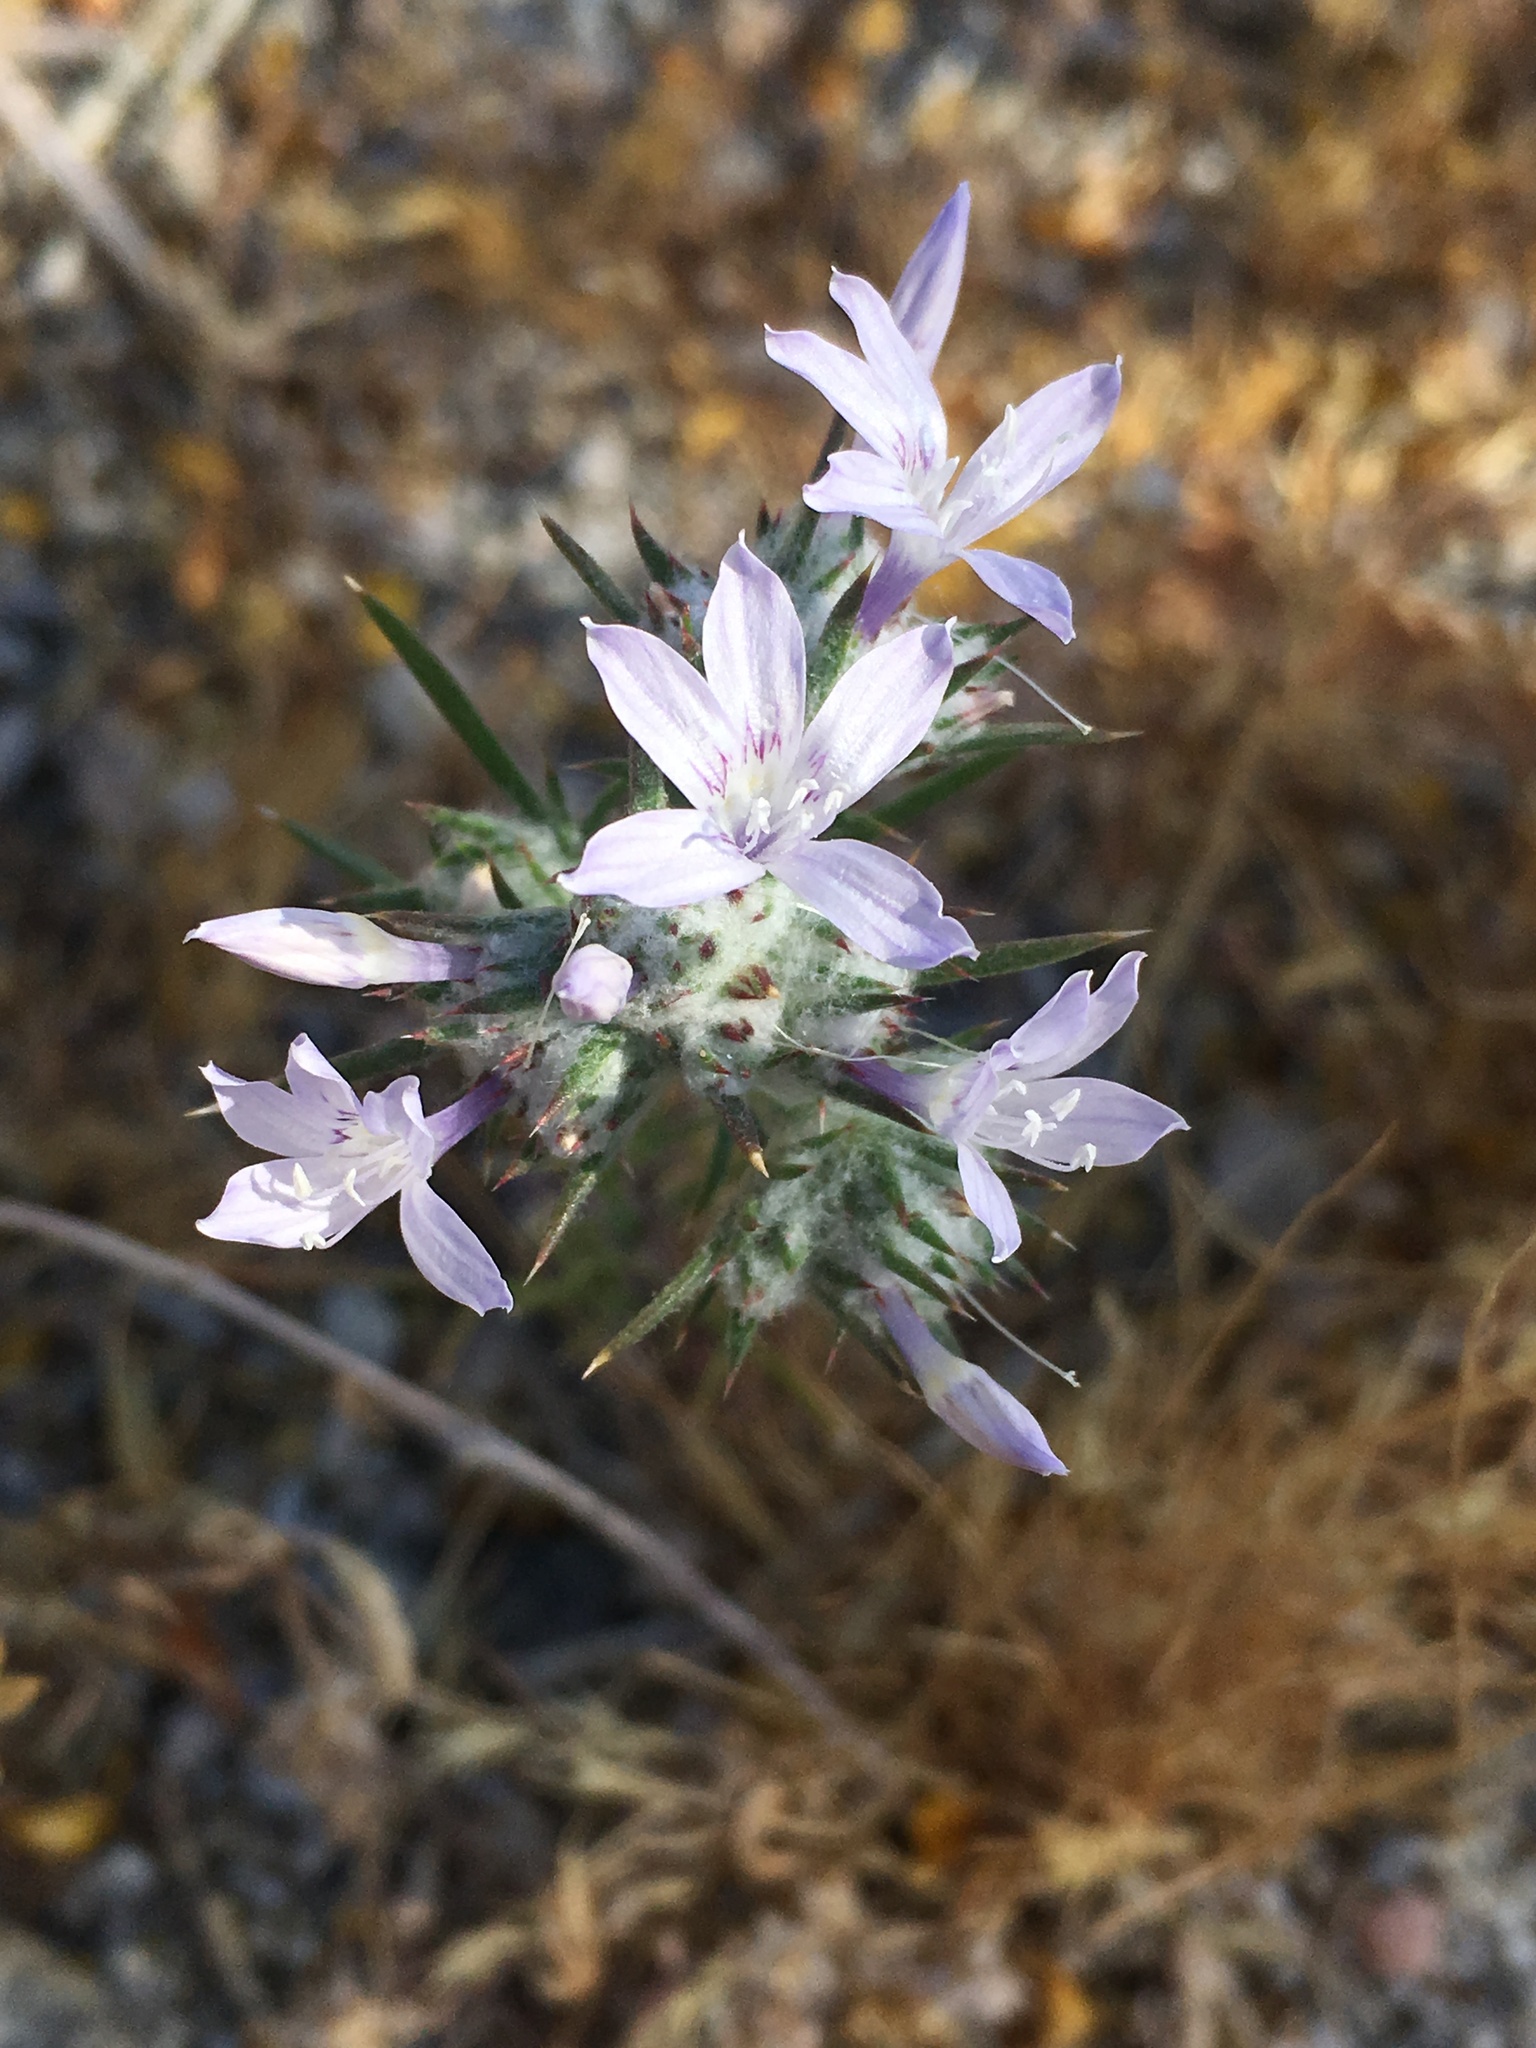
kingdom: Plantae
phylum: Tracheophyta
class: Magnoliopsida
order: Ericales
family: Polemoniaceae
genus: Eriastrum
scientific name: Eriastrum eremicum
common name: Desert eriastrum
